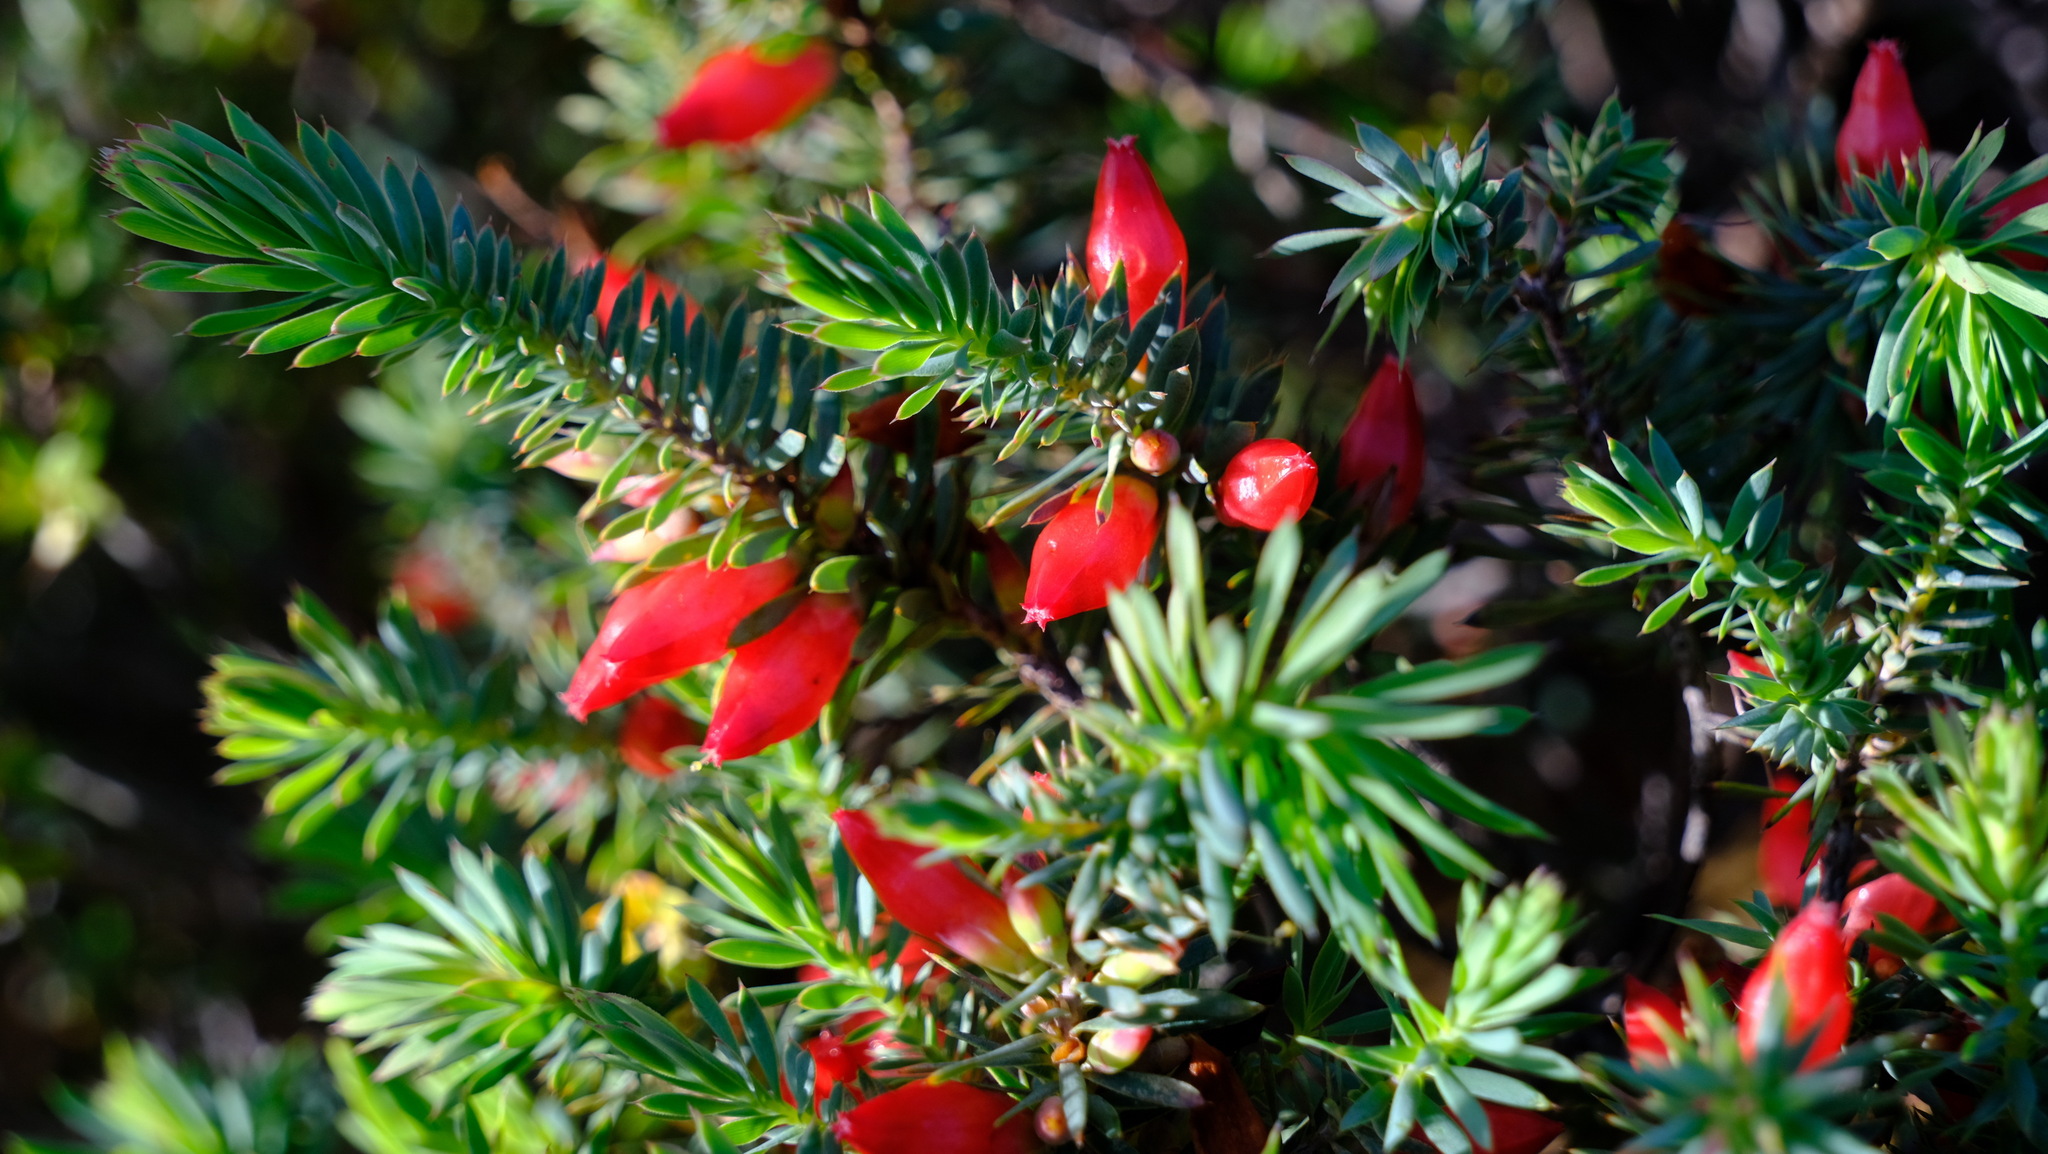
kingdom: Plantae
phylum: Tracheophyta
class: Magnoliopsida
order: Ericales
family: Ericaceae
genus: Styphelia
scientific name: Styphelia tortifolia
